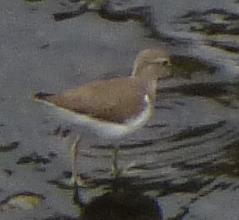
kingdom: Animalia
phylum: Chordata
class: Aves
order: Charadriiformes
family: Scolopacidae
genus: Actitis
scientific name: Actitis hypoleucos
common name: Common sandpiper
